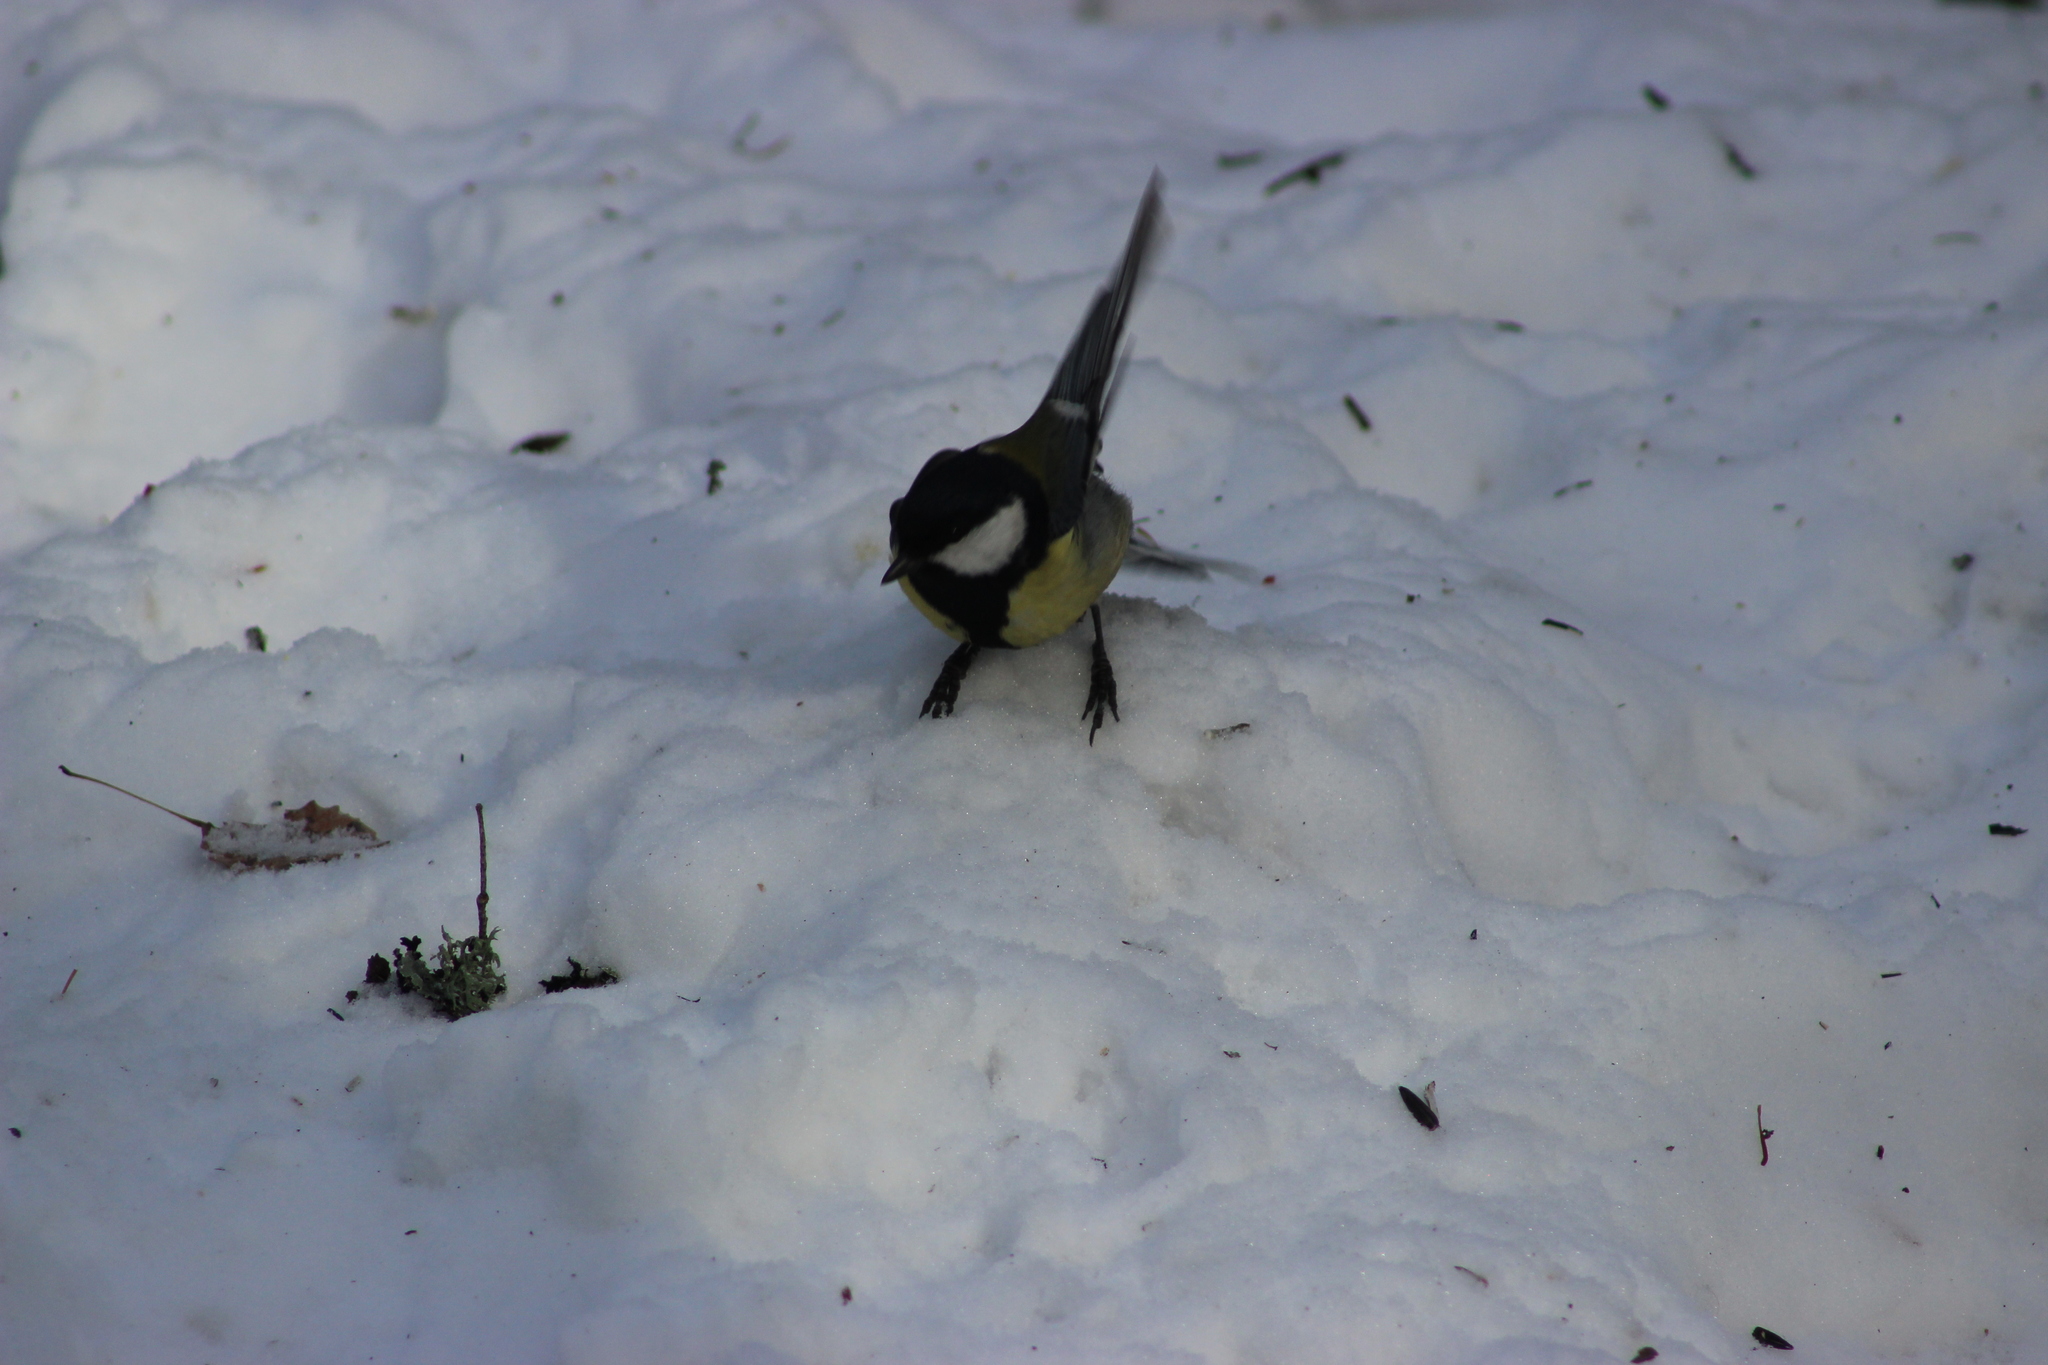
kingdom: Animalia
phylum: Chordata
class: Aves
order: Passeriformes
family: Paridae
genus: Parus
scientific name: Parus major
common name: Great tit
